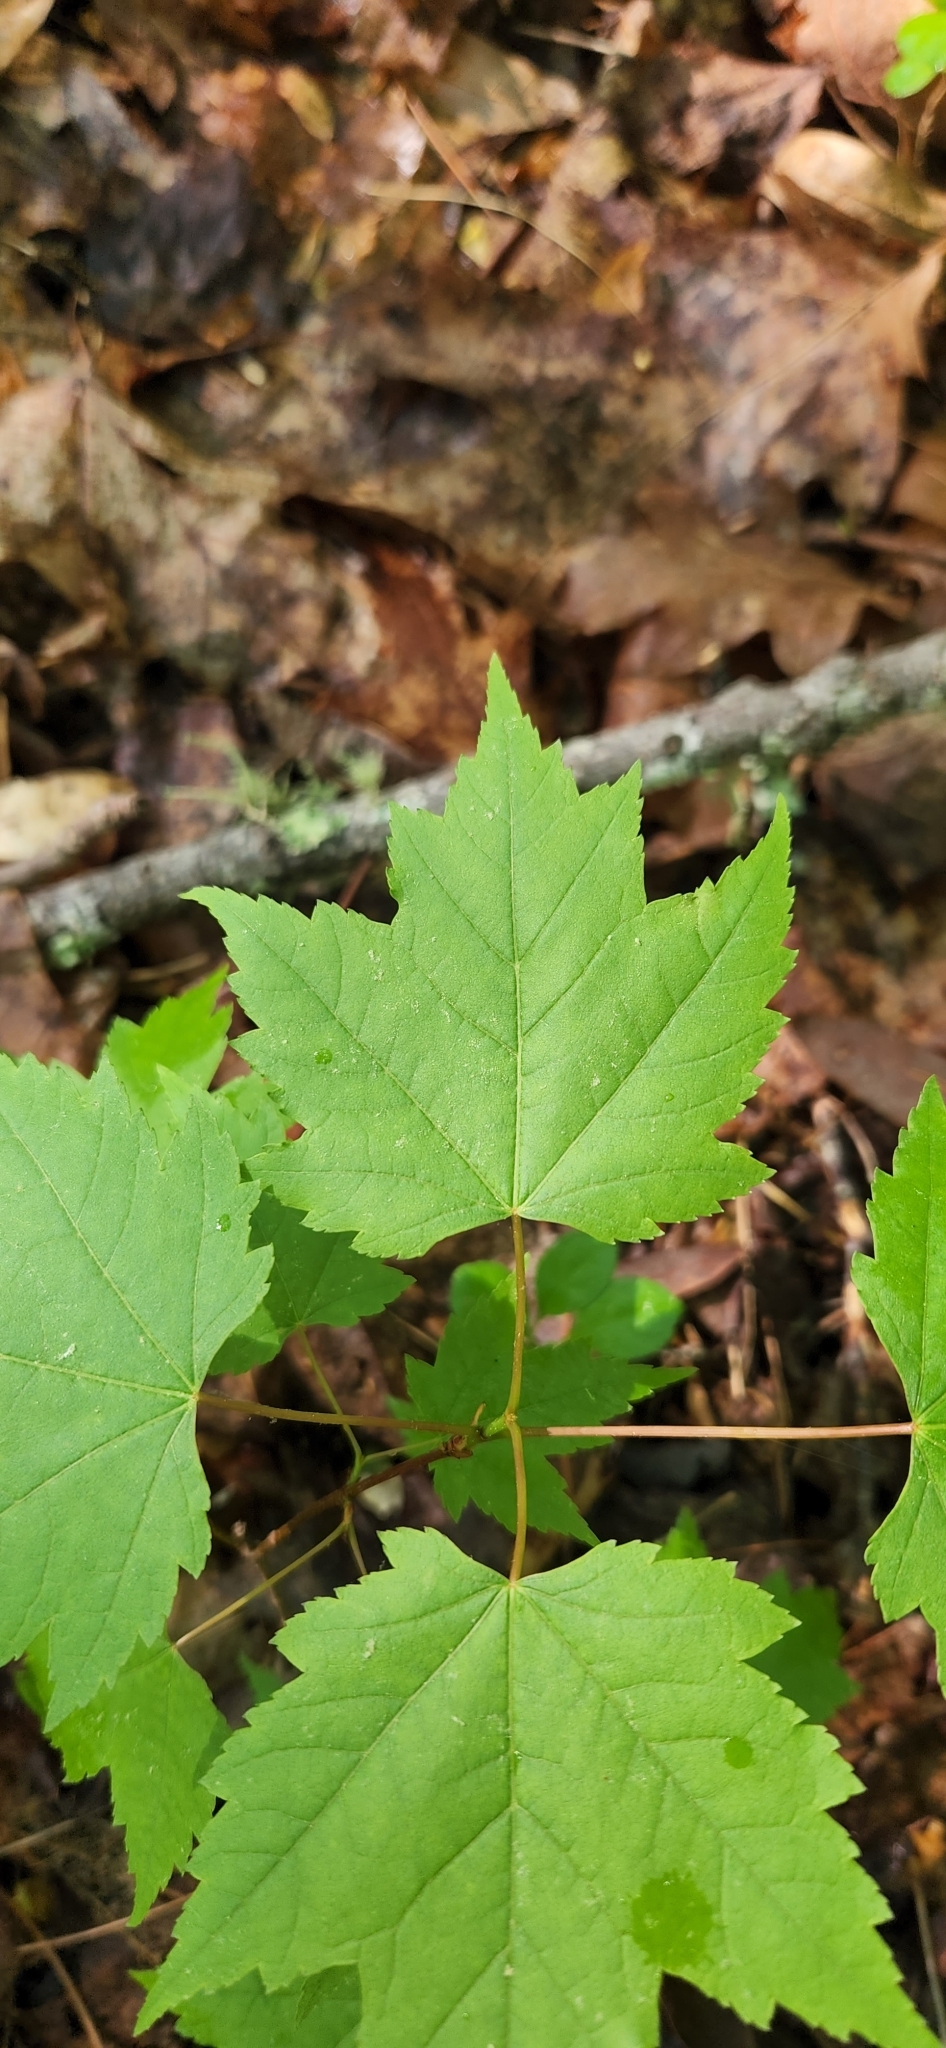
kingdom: Plantae
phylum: Tracheophyta
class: Magnoliopsida
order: Sapindales
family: Sapindaceae
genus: Acer
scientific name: Acer rubrum
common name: Red maple
